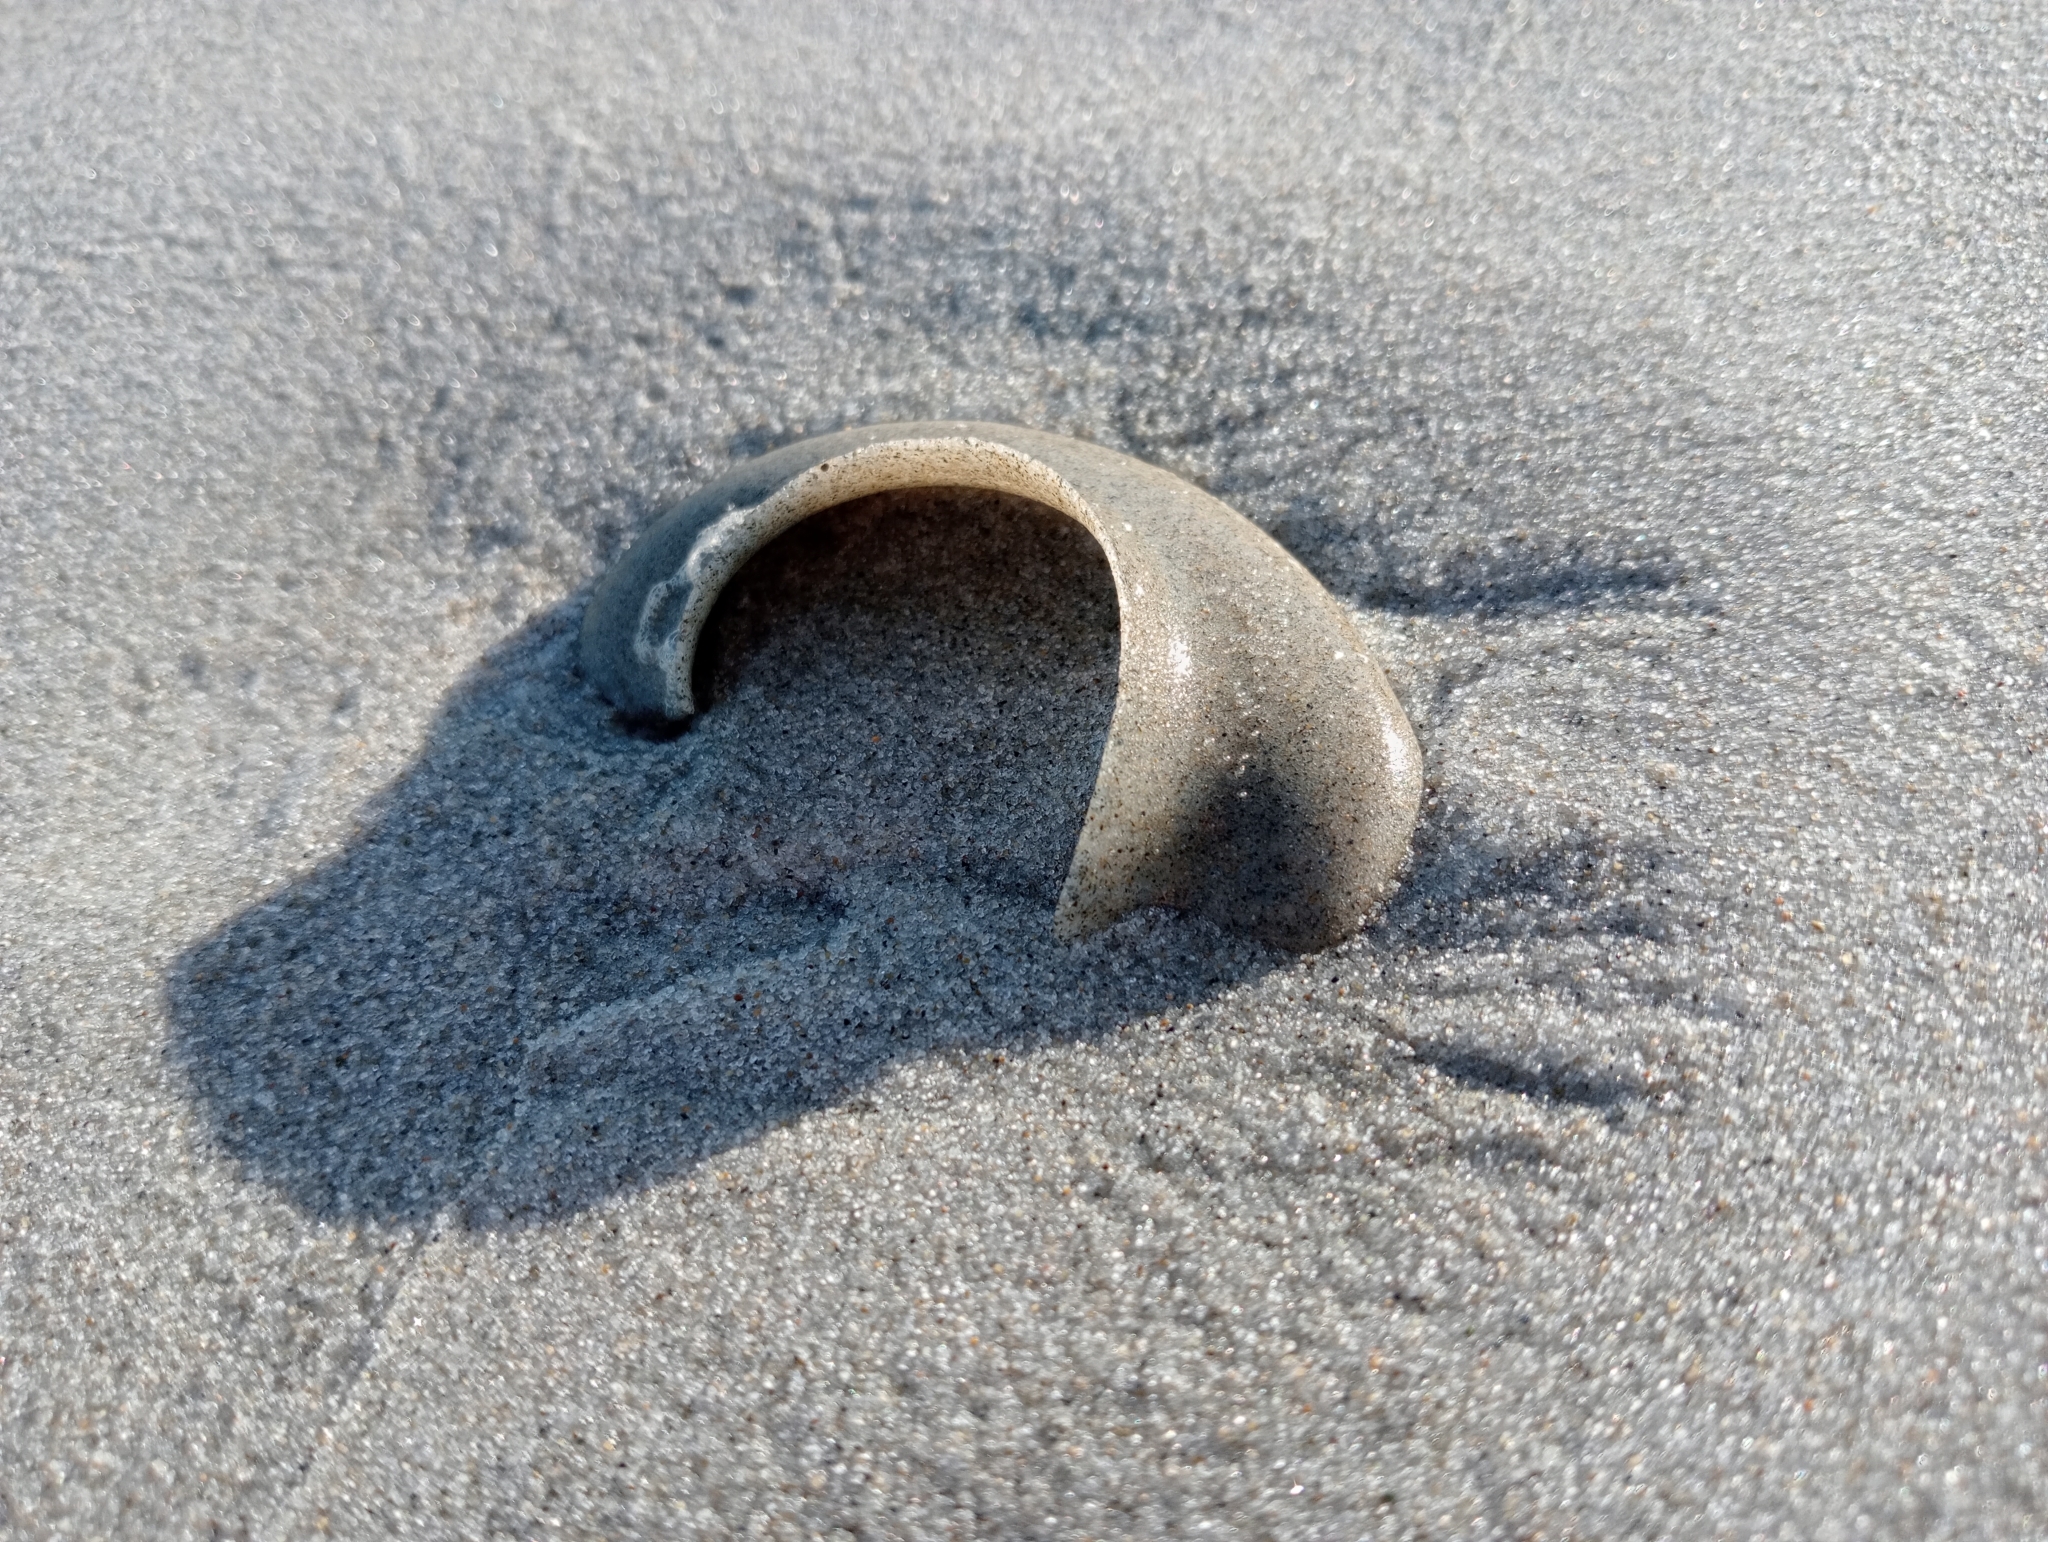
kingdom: Animalia
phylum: Mollusca
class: Gastropoda
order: Littorinimorpha
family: Naticidae
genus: Tanea
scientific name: Tanea zelandica
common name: New zealand moonsnail
